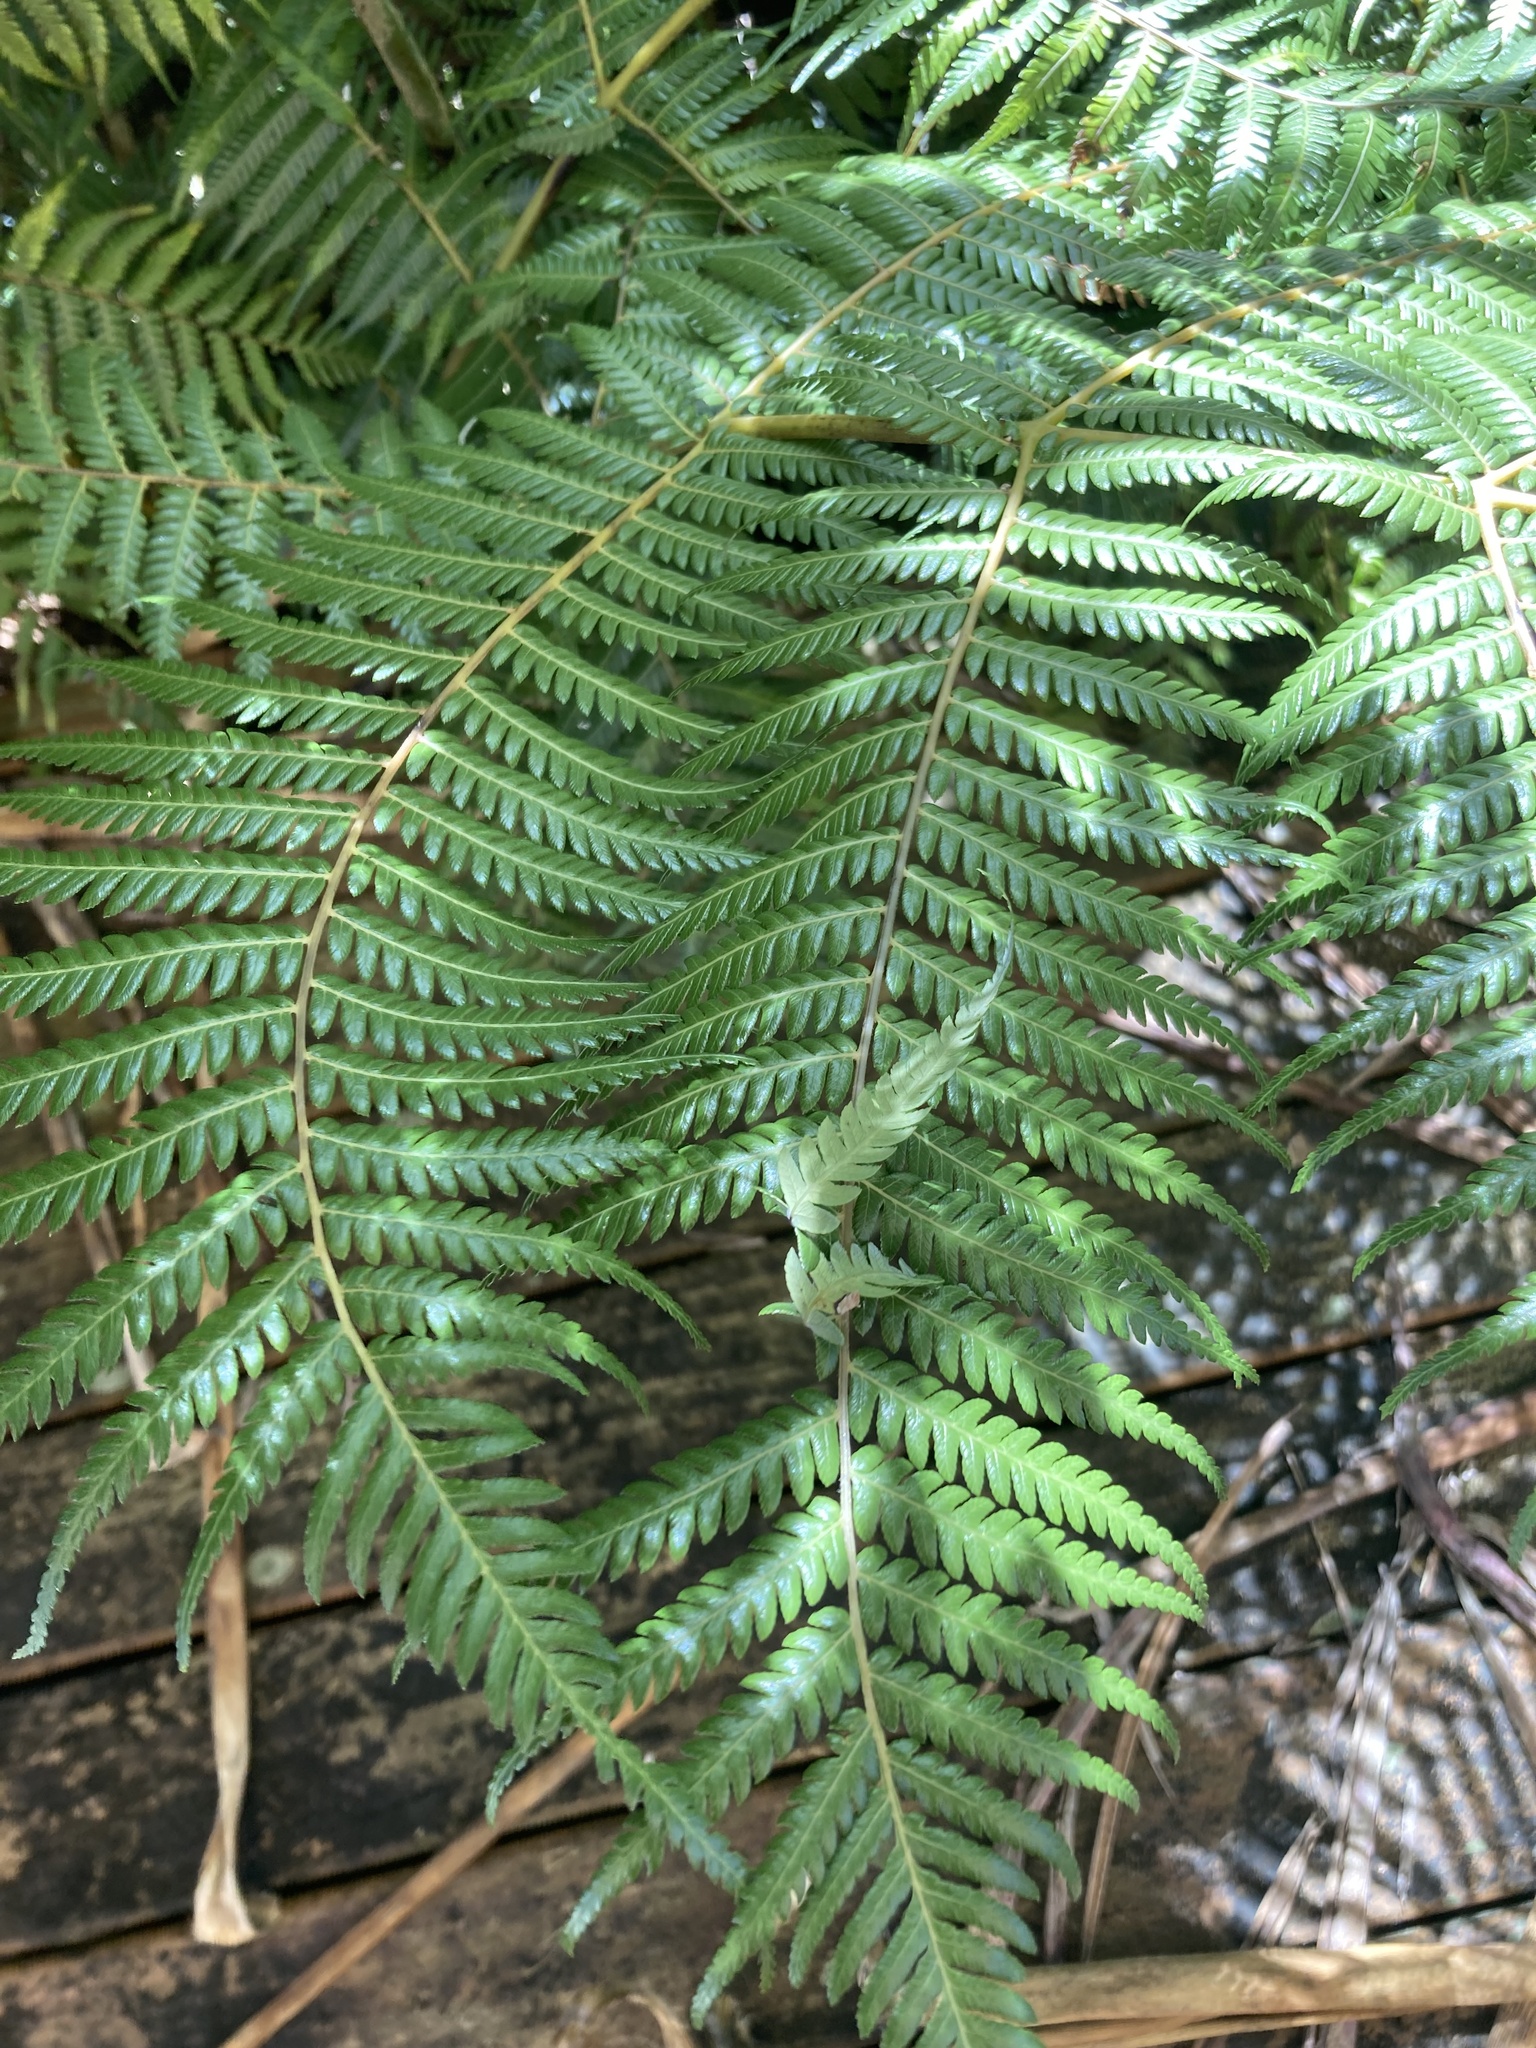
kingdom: Plantae
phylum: Tracheophyta
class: Polypodiopsida
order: Cyatheales
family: Cyatheaceae
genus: Alsophila
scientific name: Alsophila dealbata
